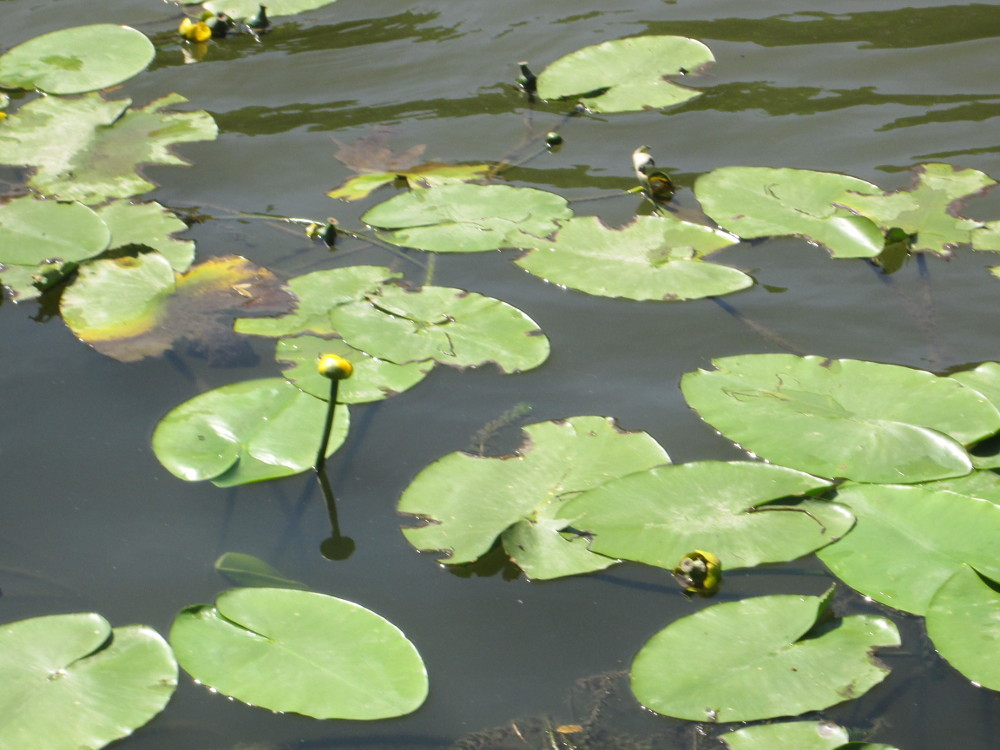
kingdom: Plantae
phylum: Tracheophyta
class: Magnoliopsida
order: Nymphaeales
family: Nymphaeaceae
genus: Nuphar
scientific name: Nuphar lutea
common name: Yellow water-lily
